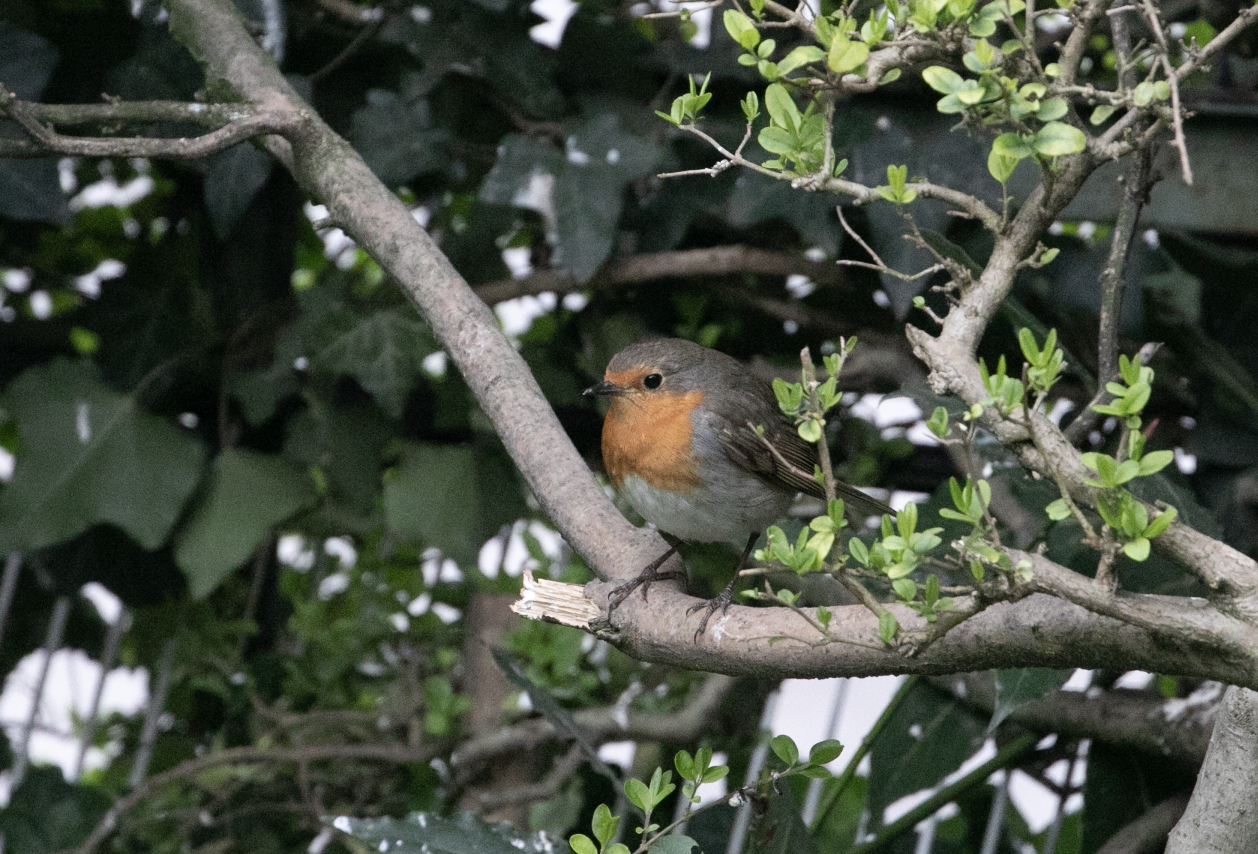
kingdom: Animalia
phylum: Chordata
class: Aves
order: Passeriformes
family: Muscicapidae
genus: Erithacus
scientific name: Erithacus rubecula
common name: European robin
